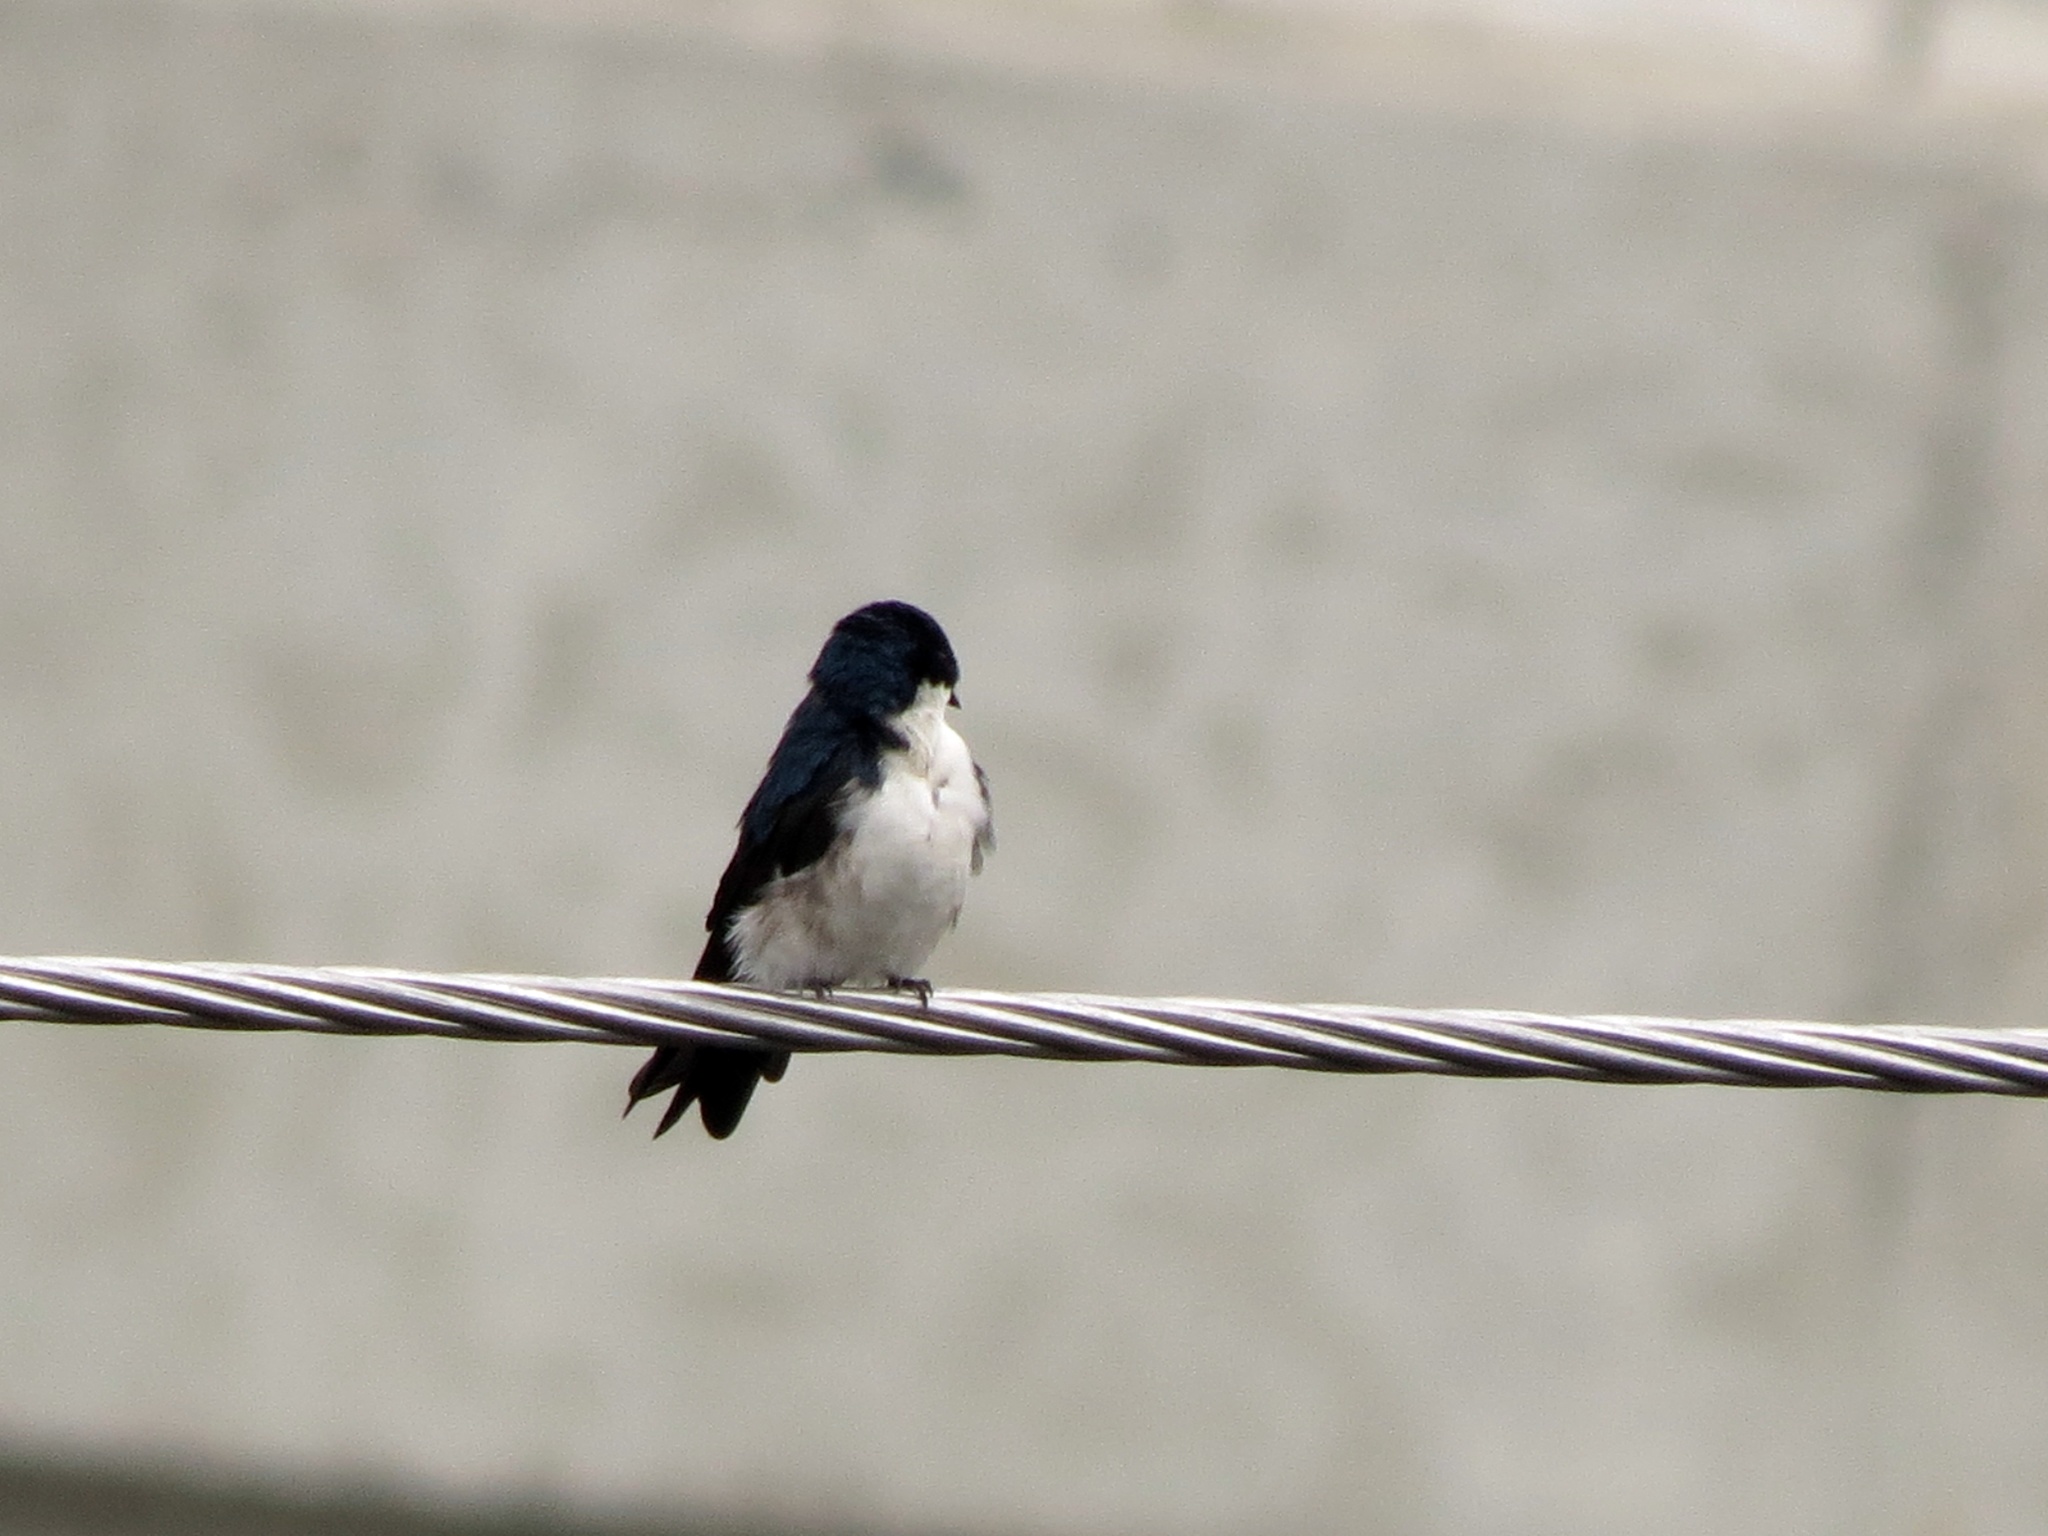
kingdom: Animalia
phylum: Chordata
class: Aves
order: Passeriformes
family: Hirundinidae
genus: Notiochelidon
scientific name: Notiochelidon cyanoleuca
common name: Blue-and-white swallow
